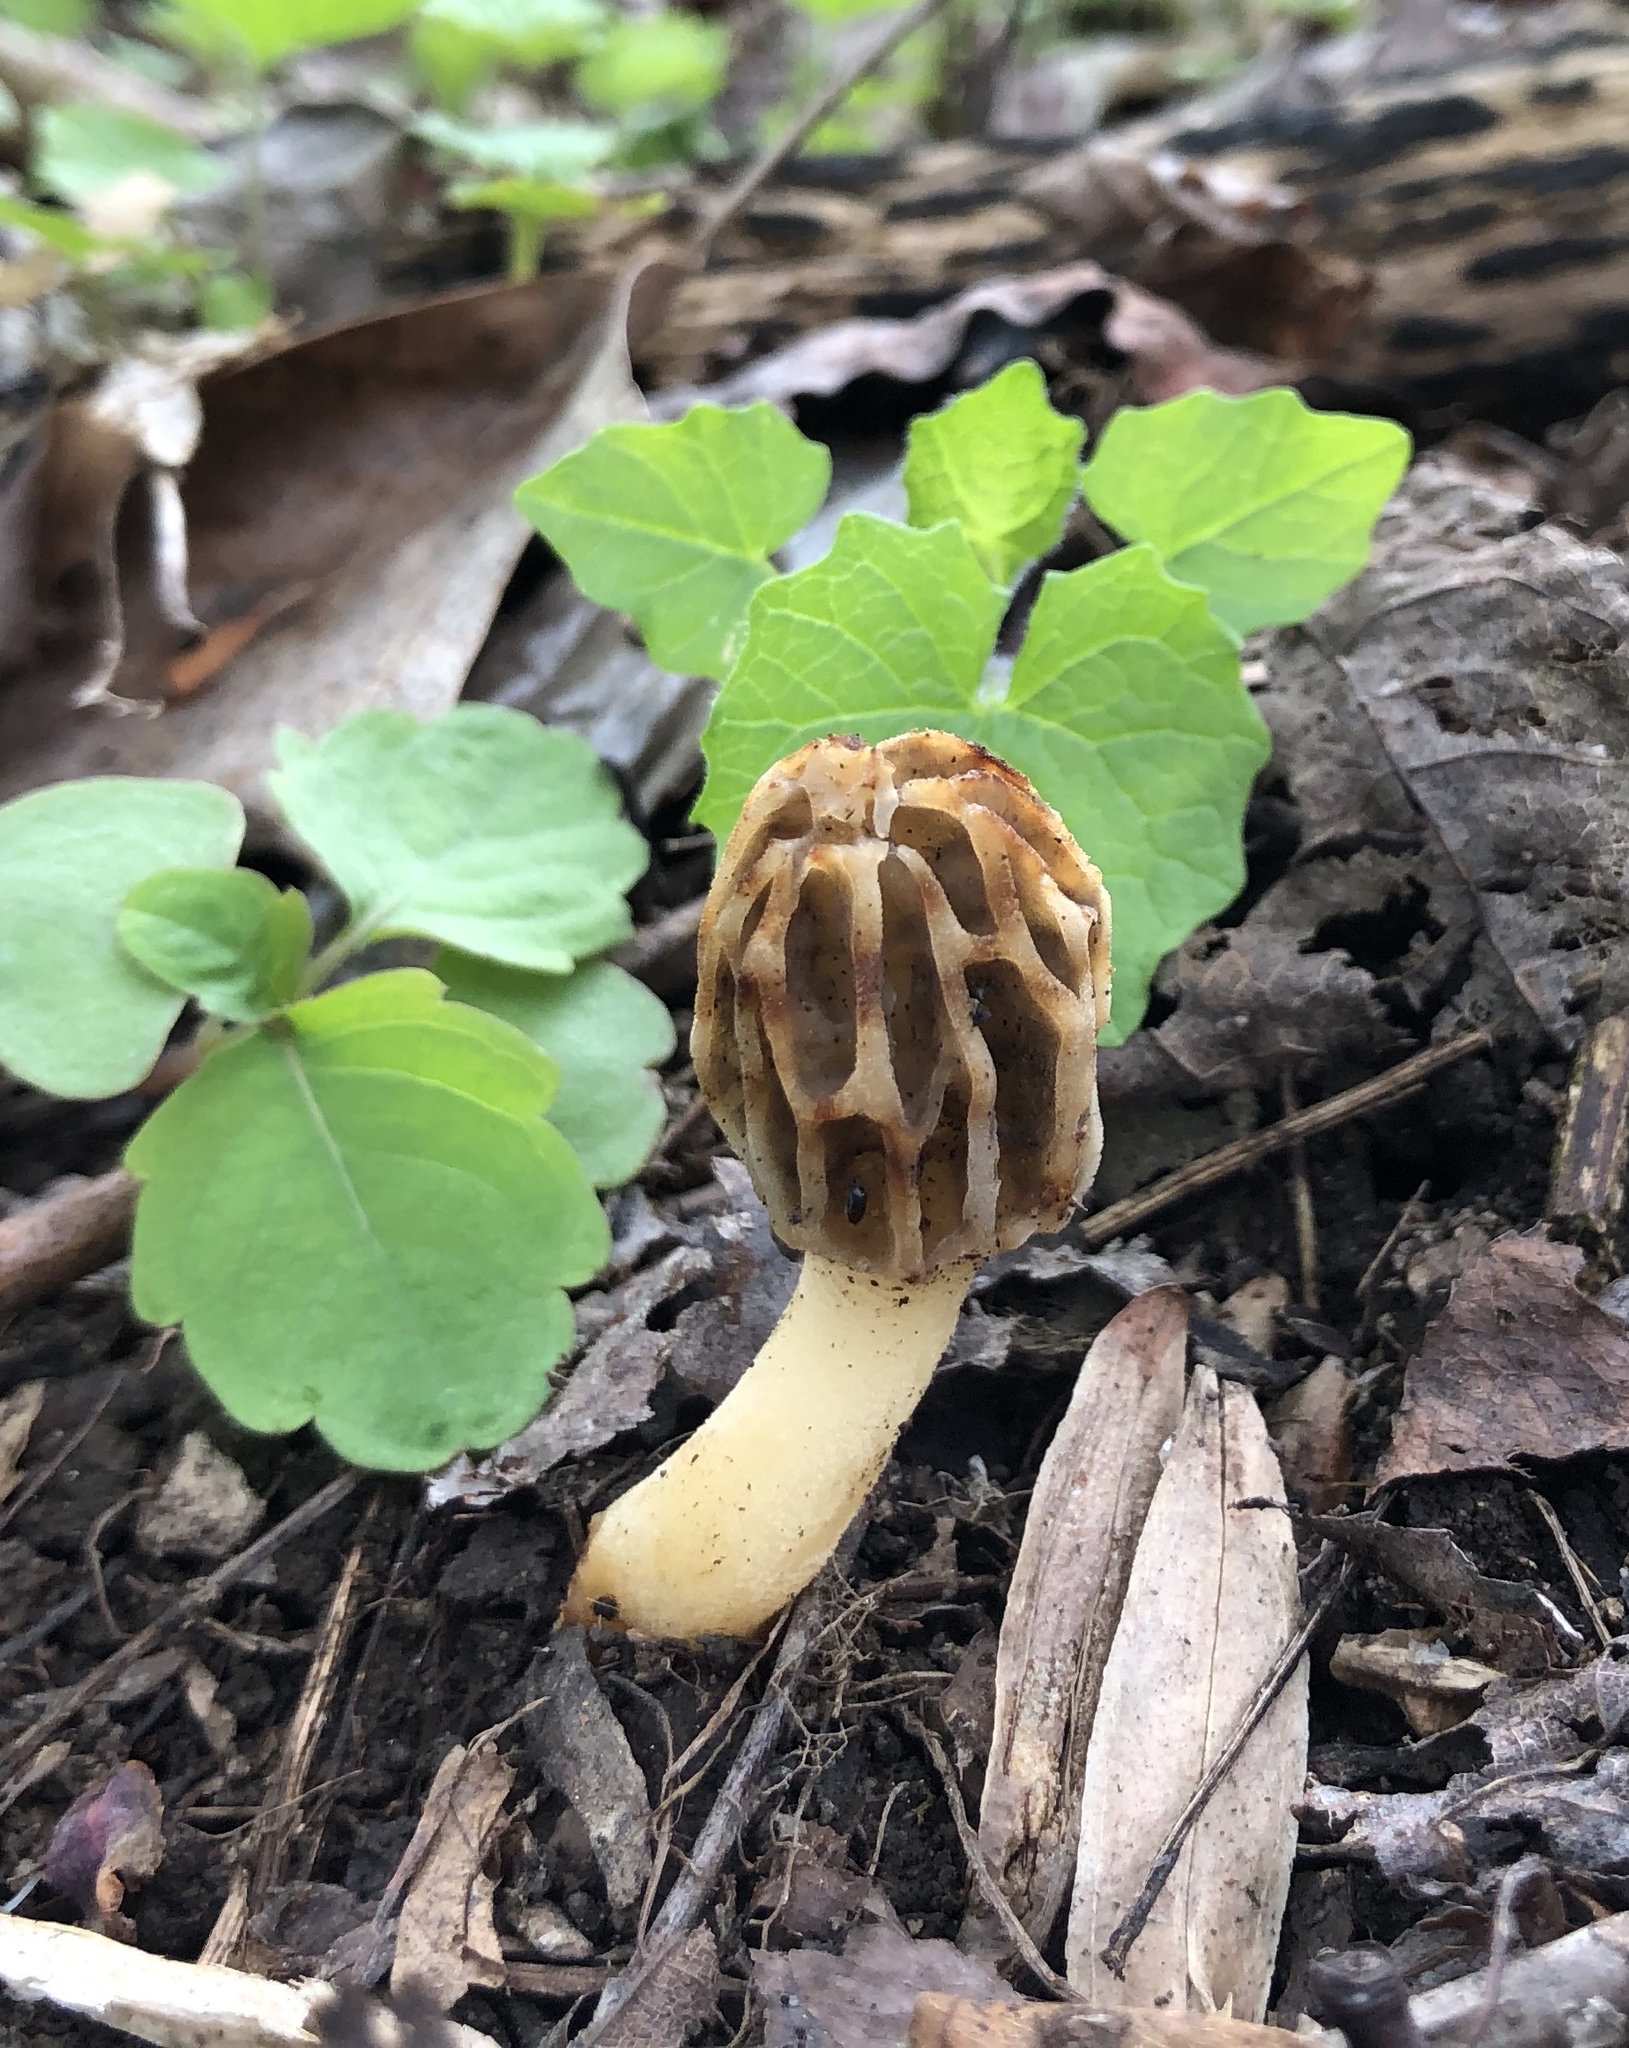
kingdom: Fungi
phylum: Ascomycota
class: Pezizomycetes
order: Pezizales
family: Morchellaceae
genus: Morchella
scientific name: Morchella diminutiva
